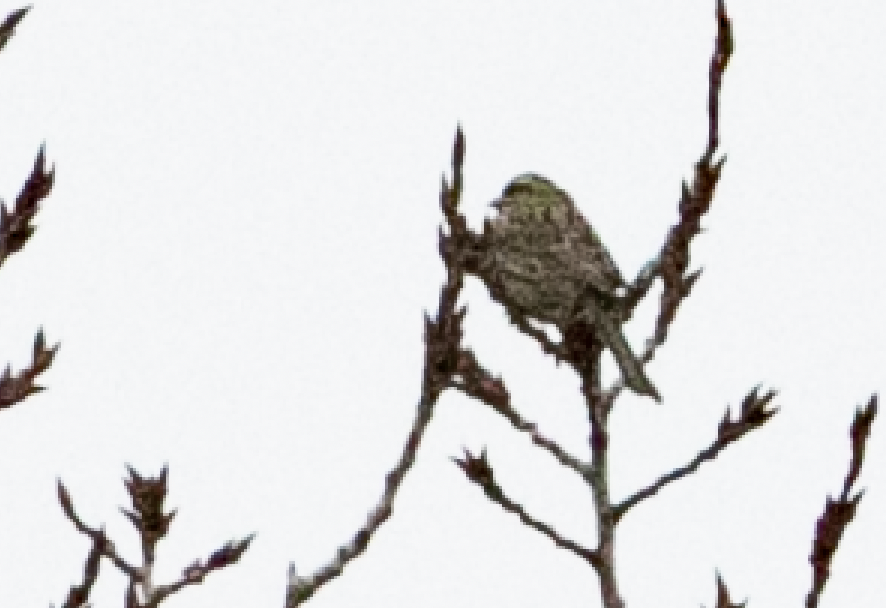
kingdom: Animalia
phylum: Chordata
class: Aves
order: Passeriformes
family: Emberizidae
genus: Emberiza
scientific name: Emberiza cirlus
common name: Cirl bunting
